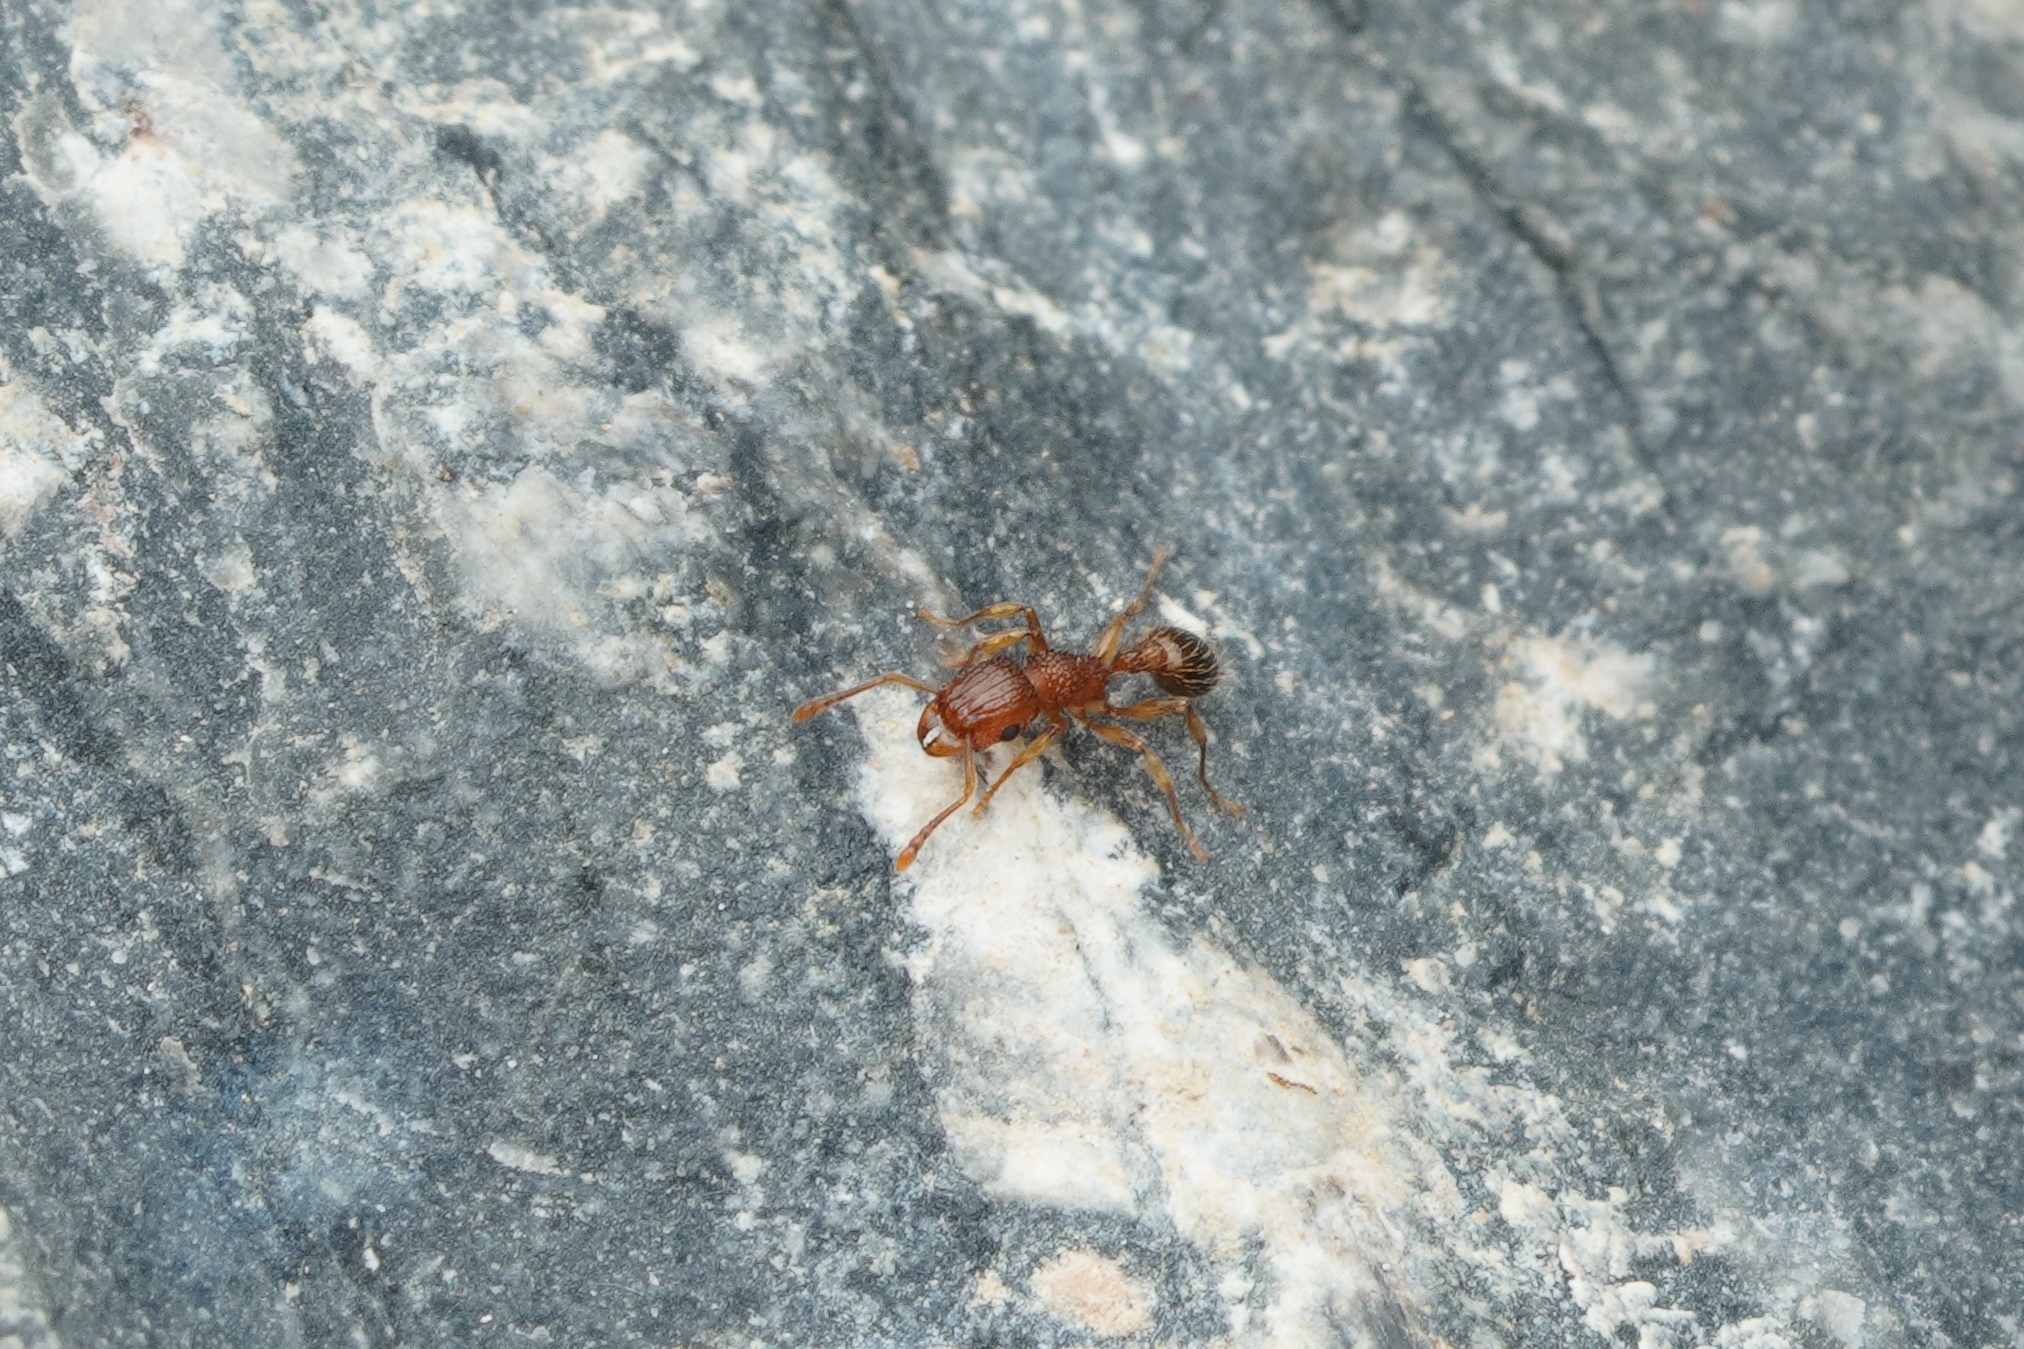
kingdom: Animalia
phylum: Arthropoda
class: Insecta
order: Hymenoptera
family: Formicidae
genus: Tetramorium
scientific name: Tetramorium bicarinatum
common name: Guinea ant
